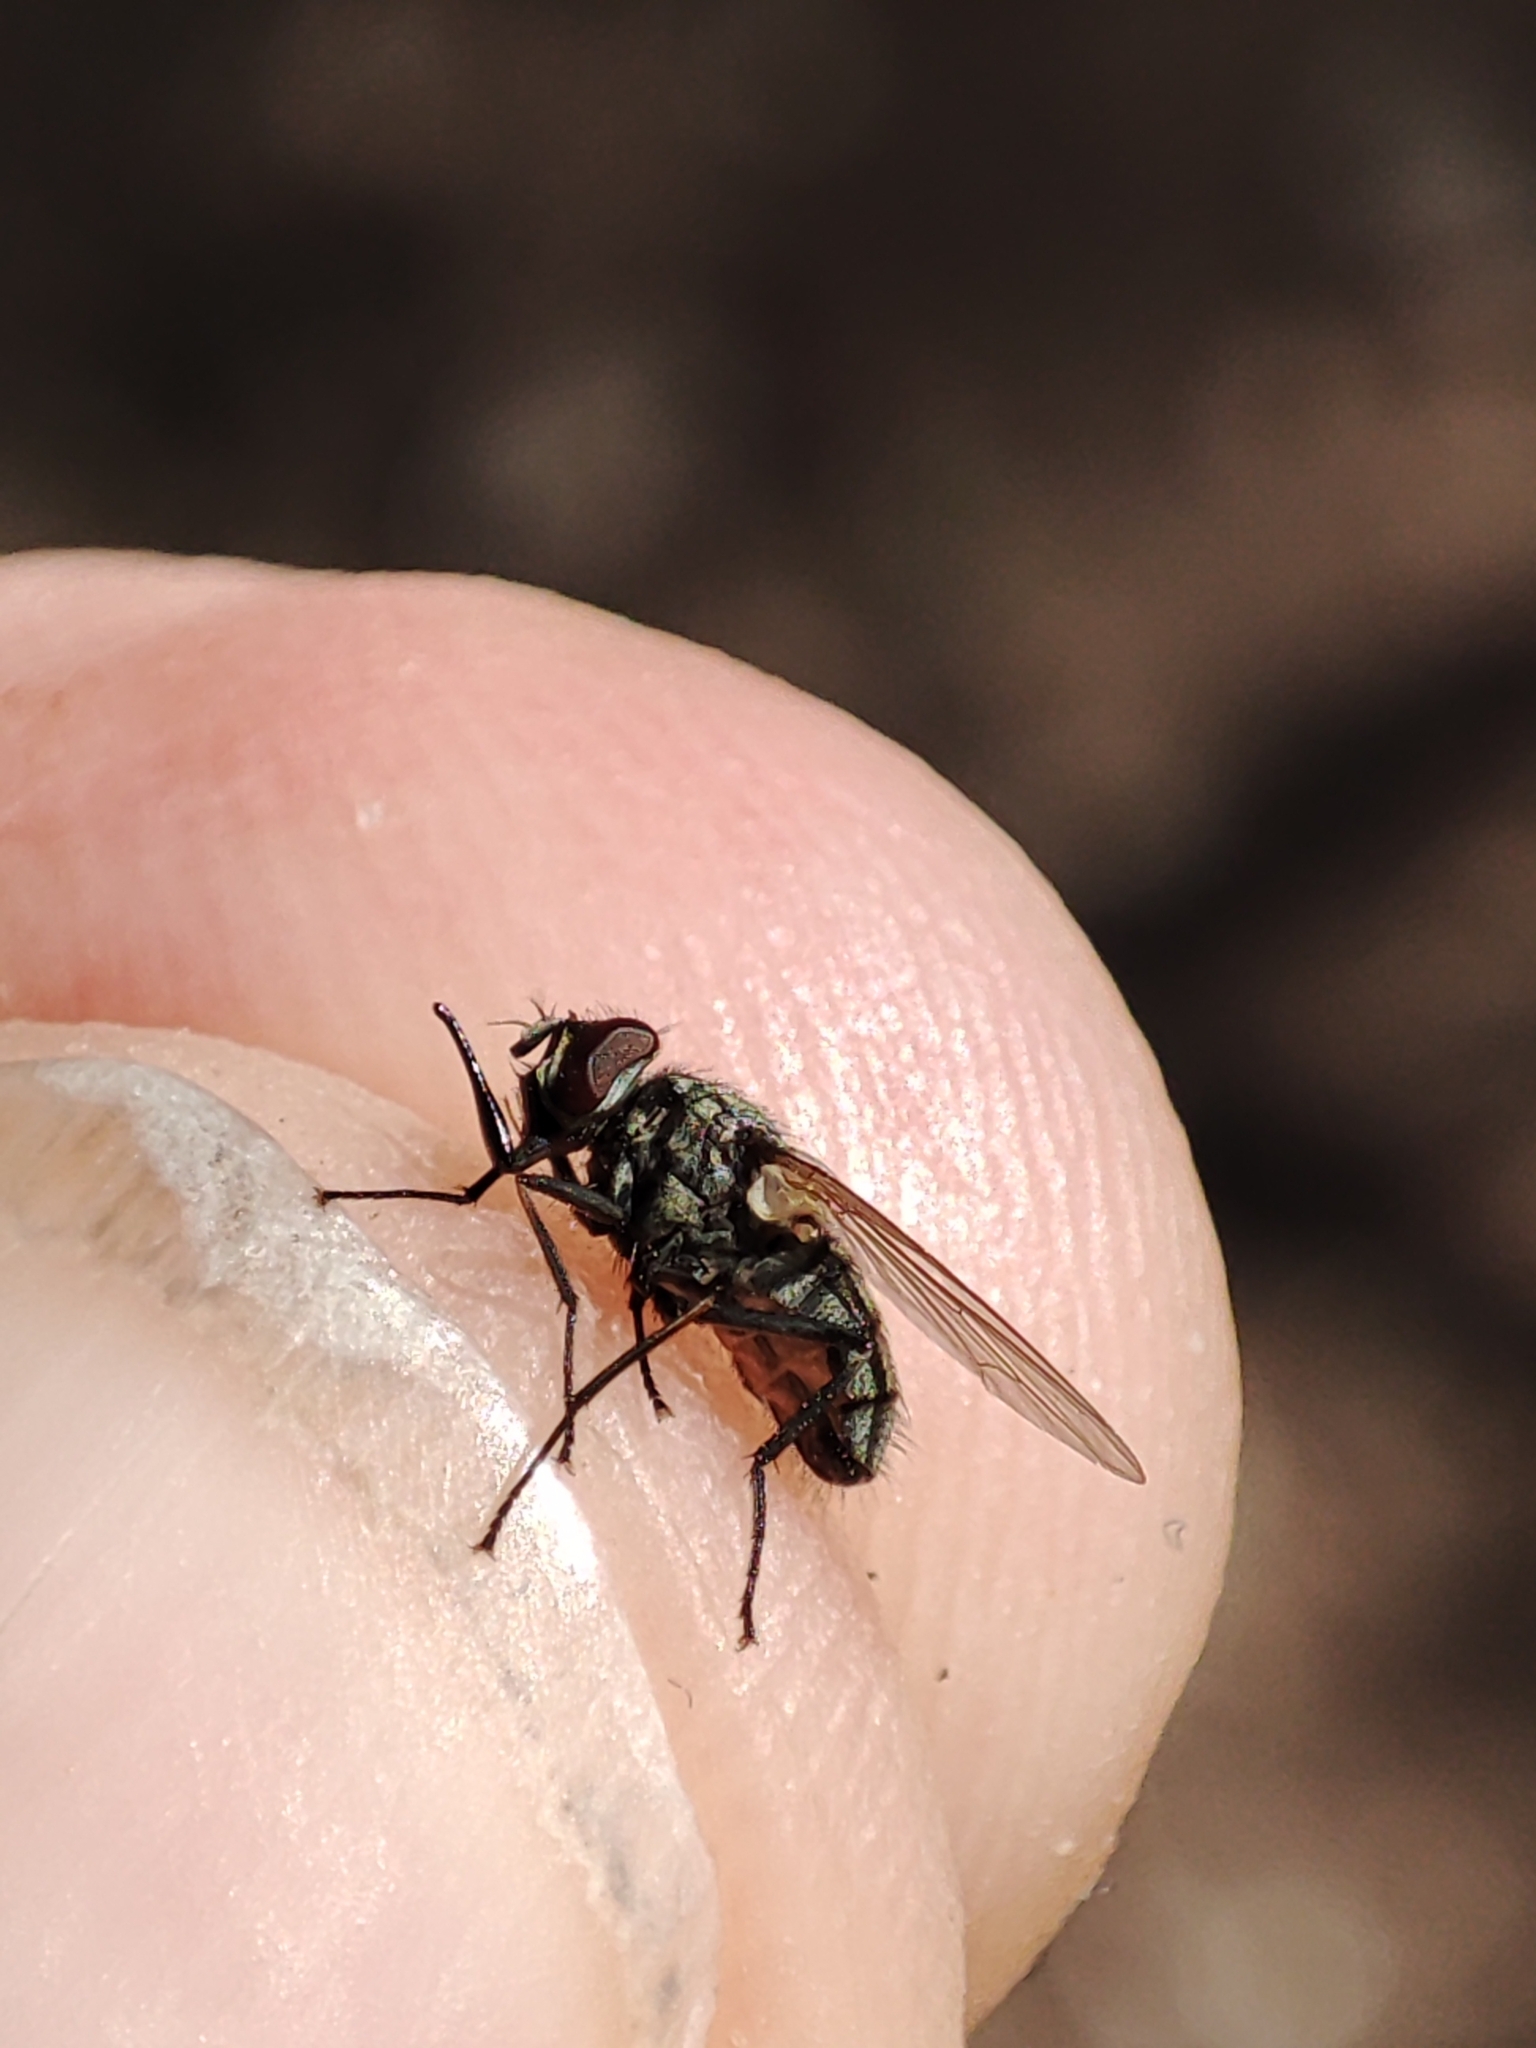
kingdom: Animalia
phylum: Arthropoda
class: Insecta
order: Diptera
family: Muscidae
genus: Stomoxys
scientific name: Stomoxys calcitrans
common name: Stable fly
